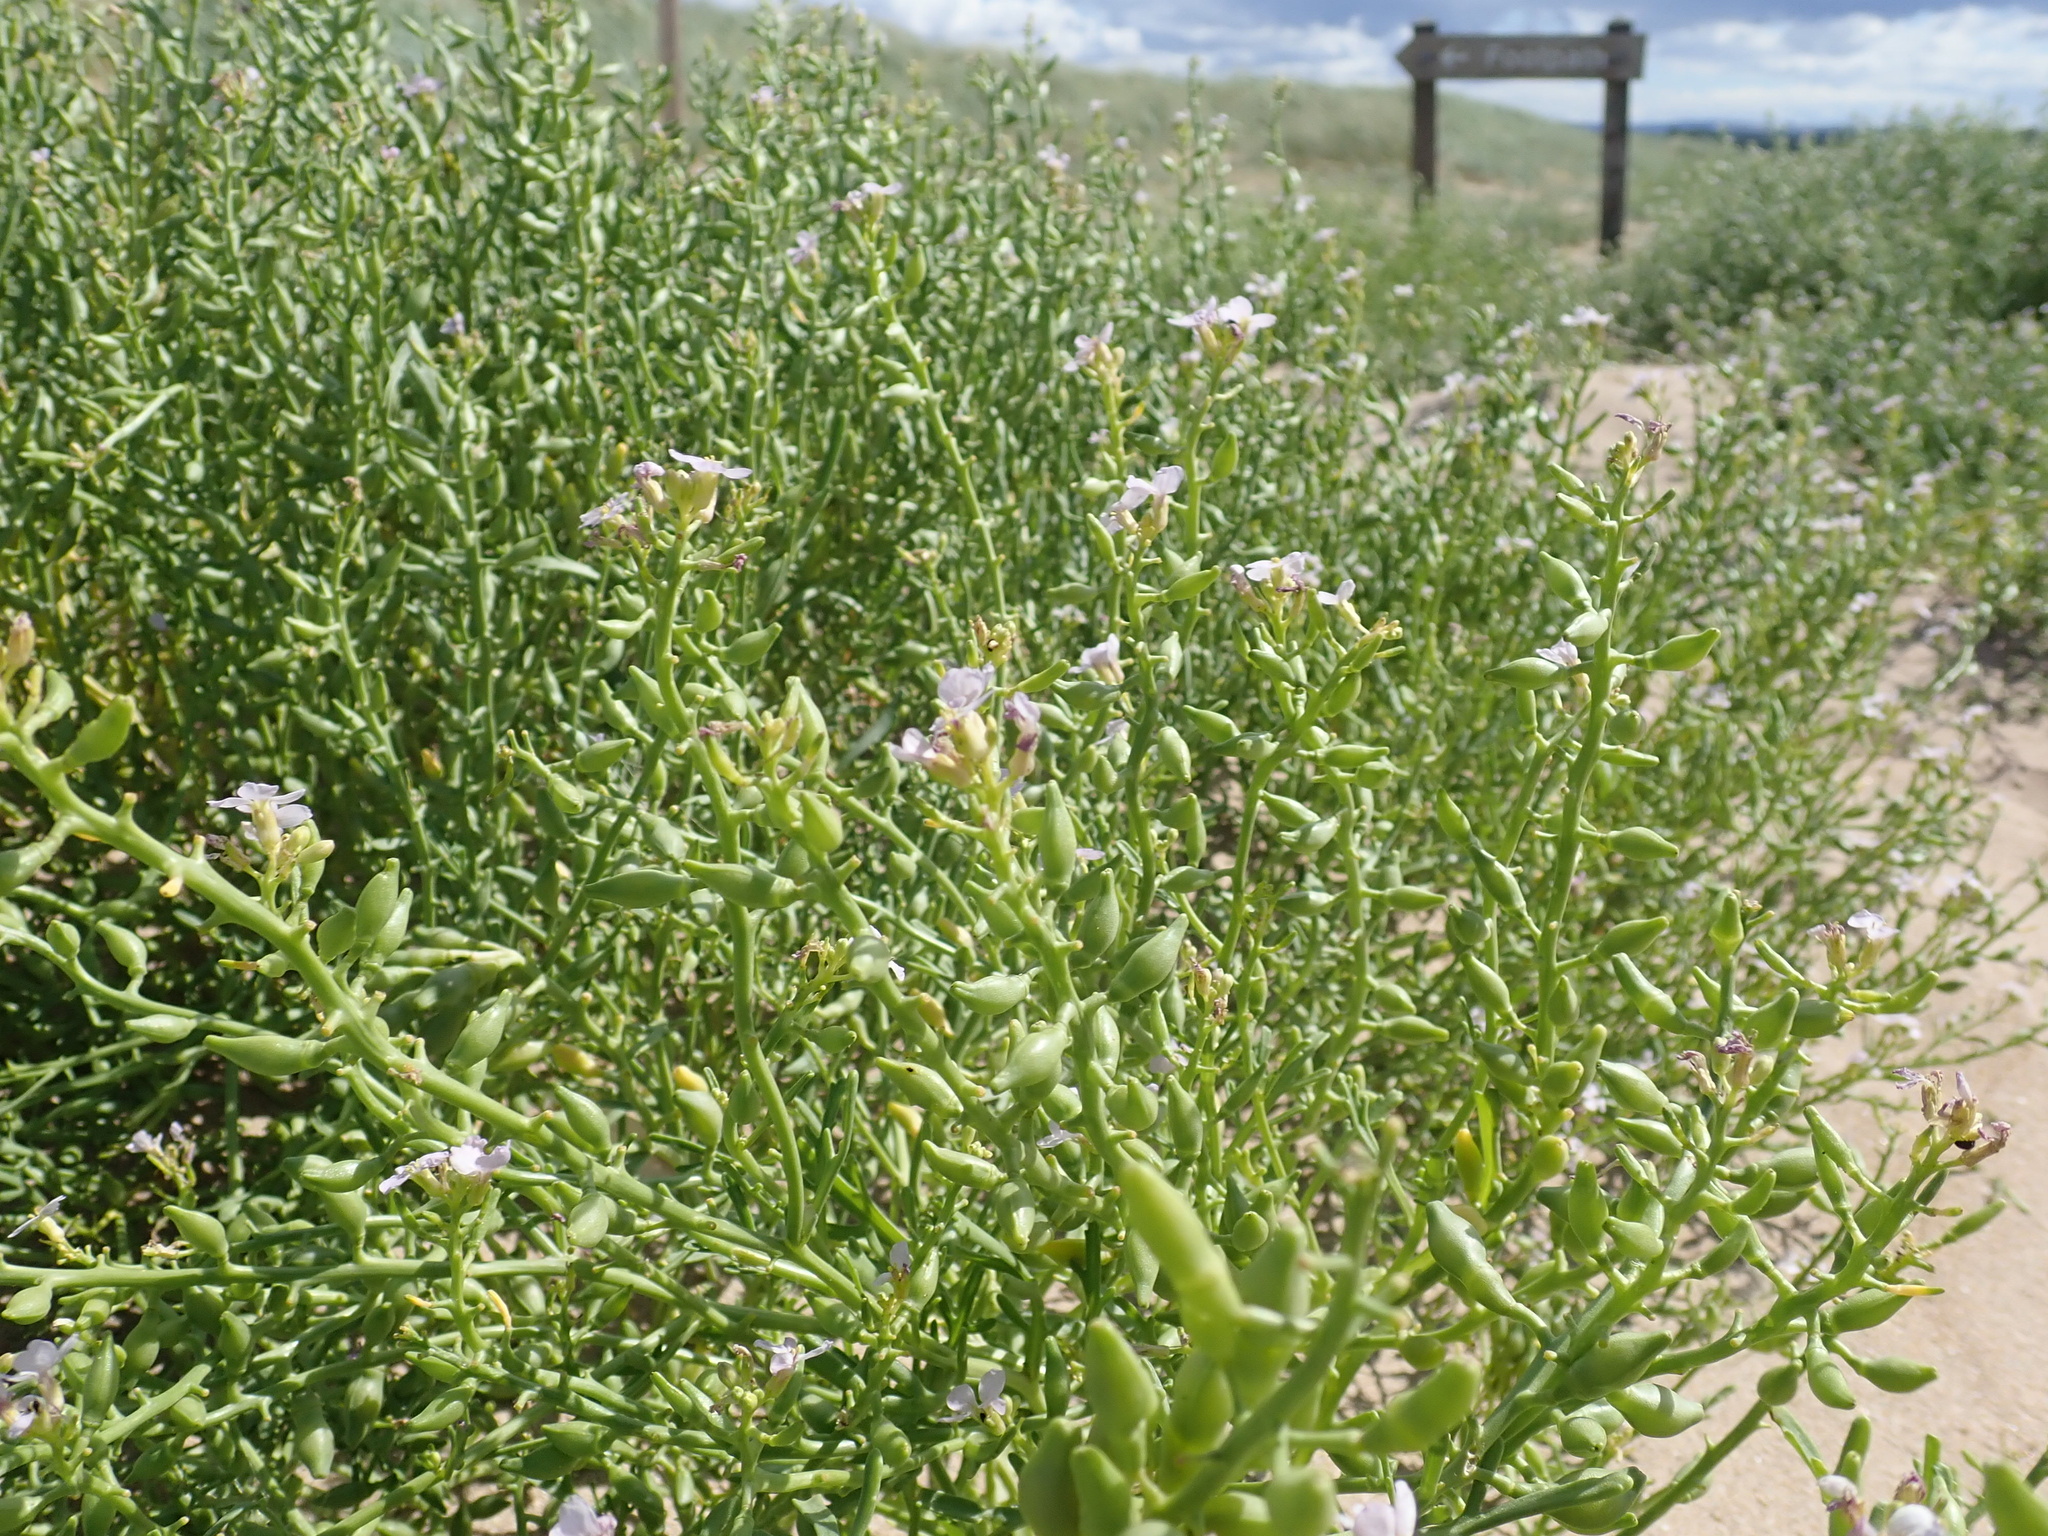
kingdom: Plantae
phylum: Tracheophyta
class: Magnoliopsida
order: Brassicales
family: Brassicaceae
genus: Cakile
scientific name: Cakile maritima
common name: Sea rocket
